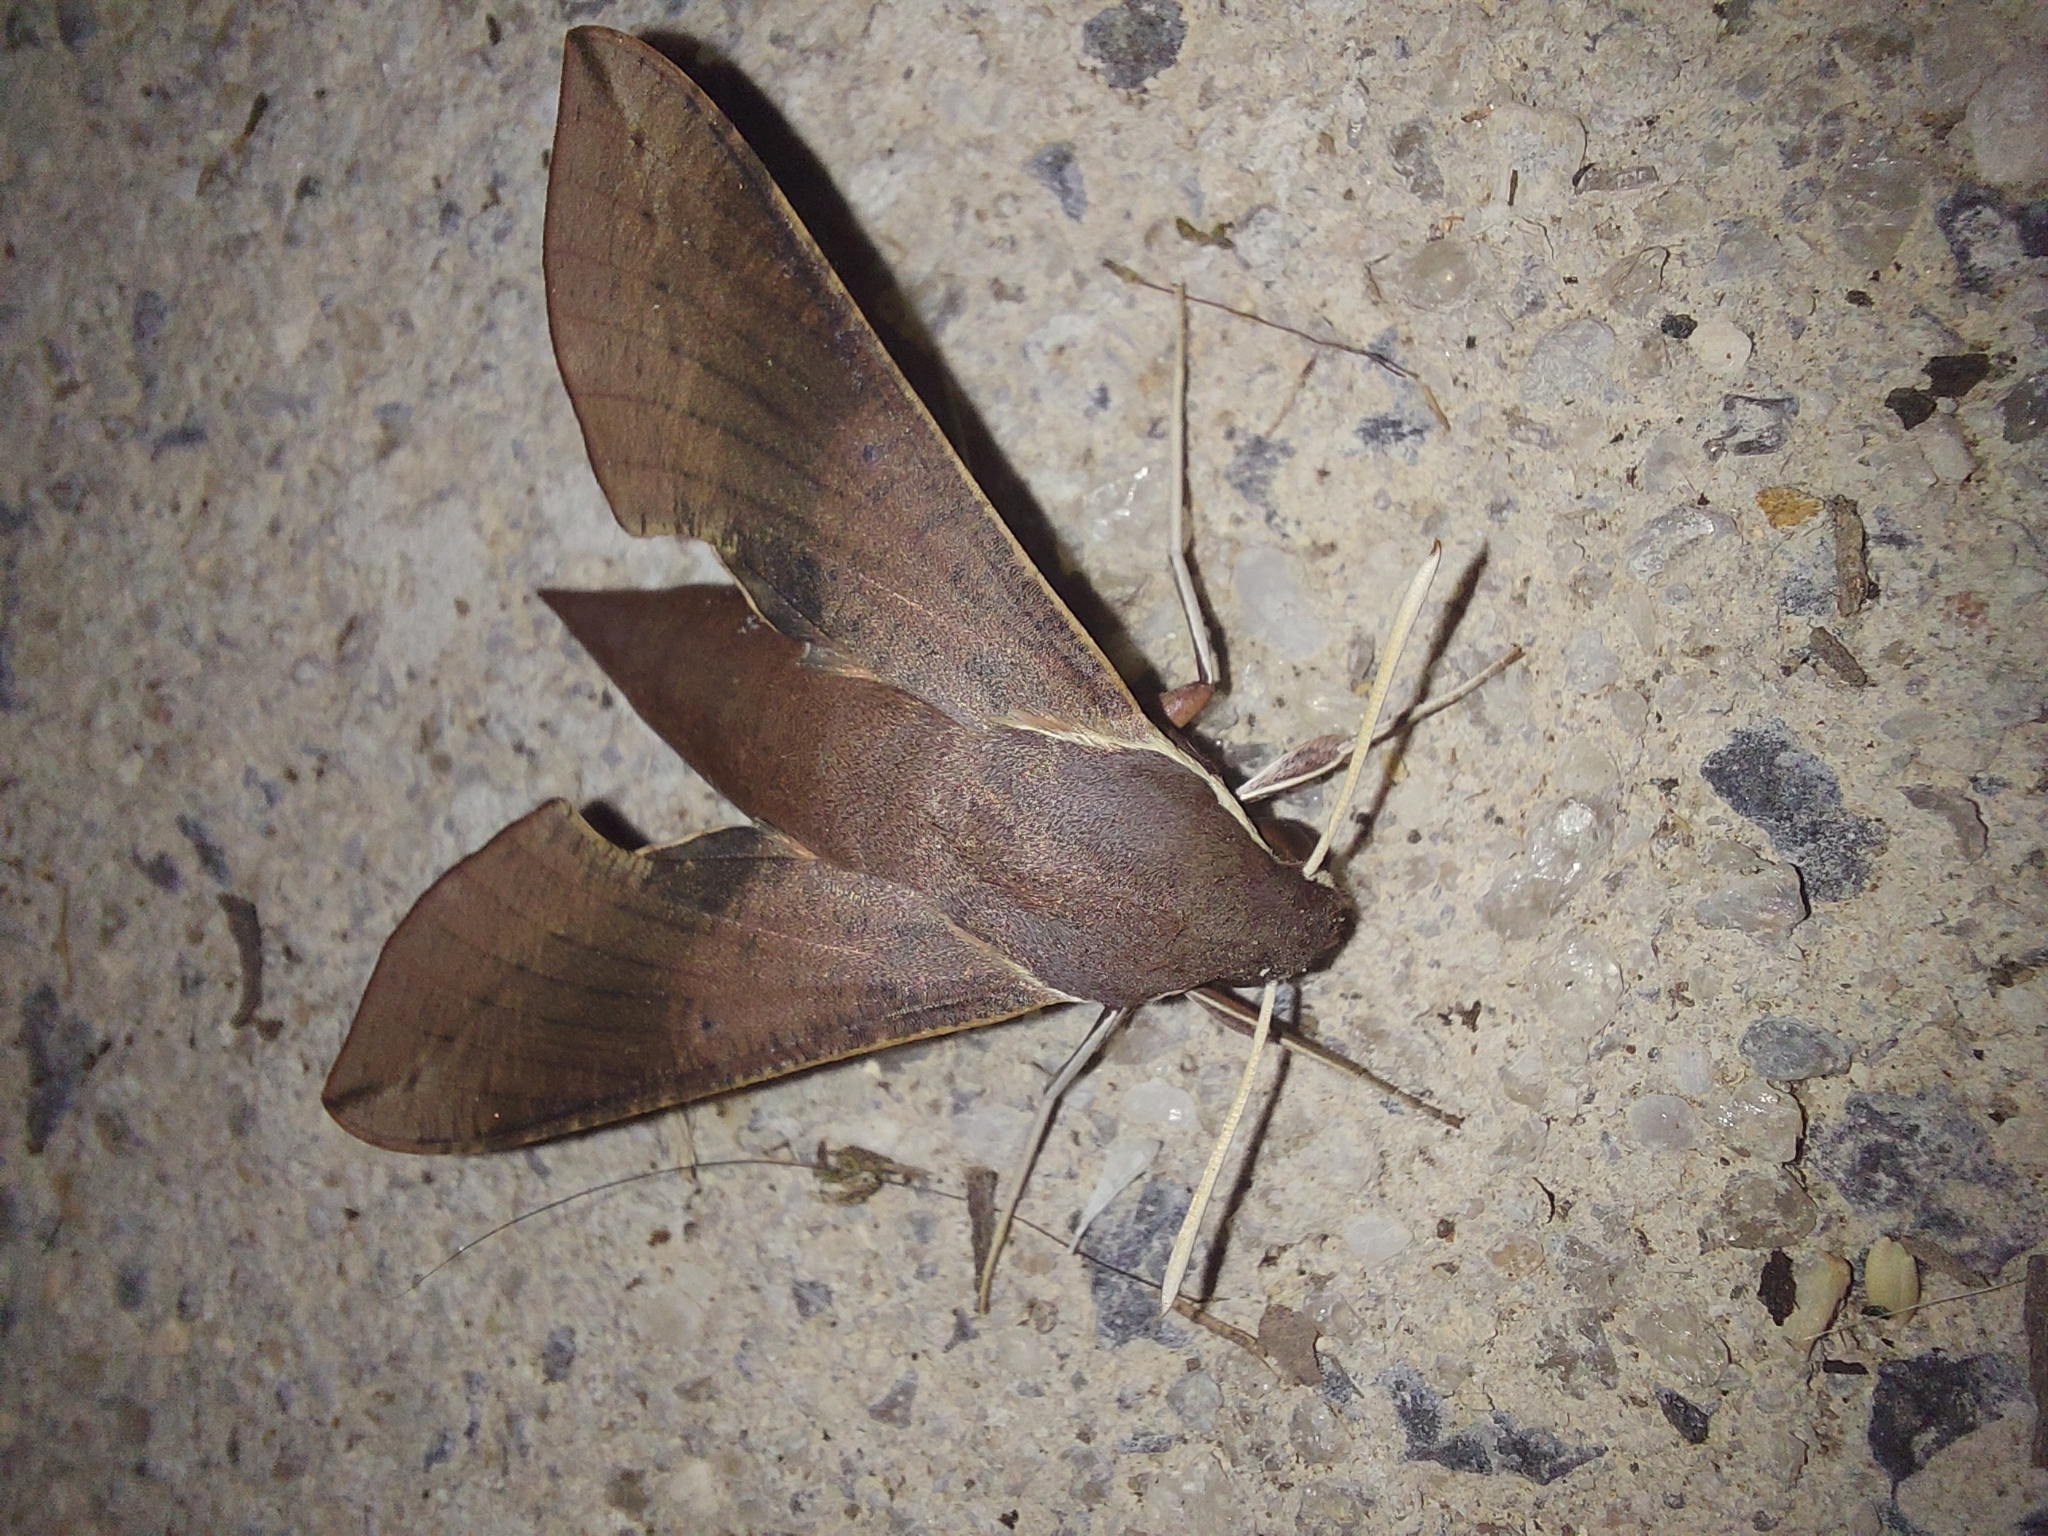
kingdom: Animalia
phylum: Arthropoda
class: Insecta
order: Lepidoptera
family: Sphingidae
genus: Hippotion
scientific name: Hippotion scrofa
